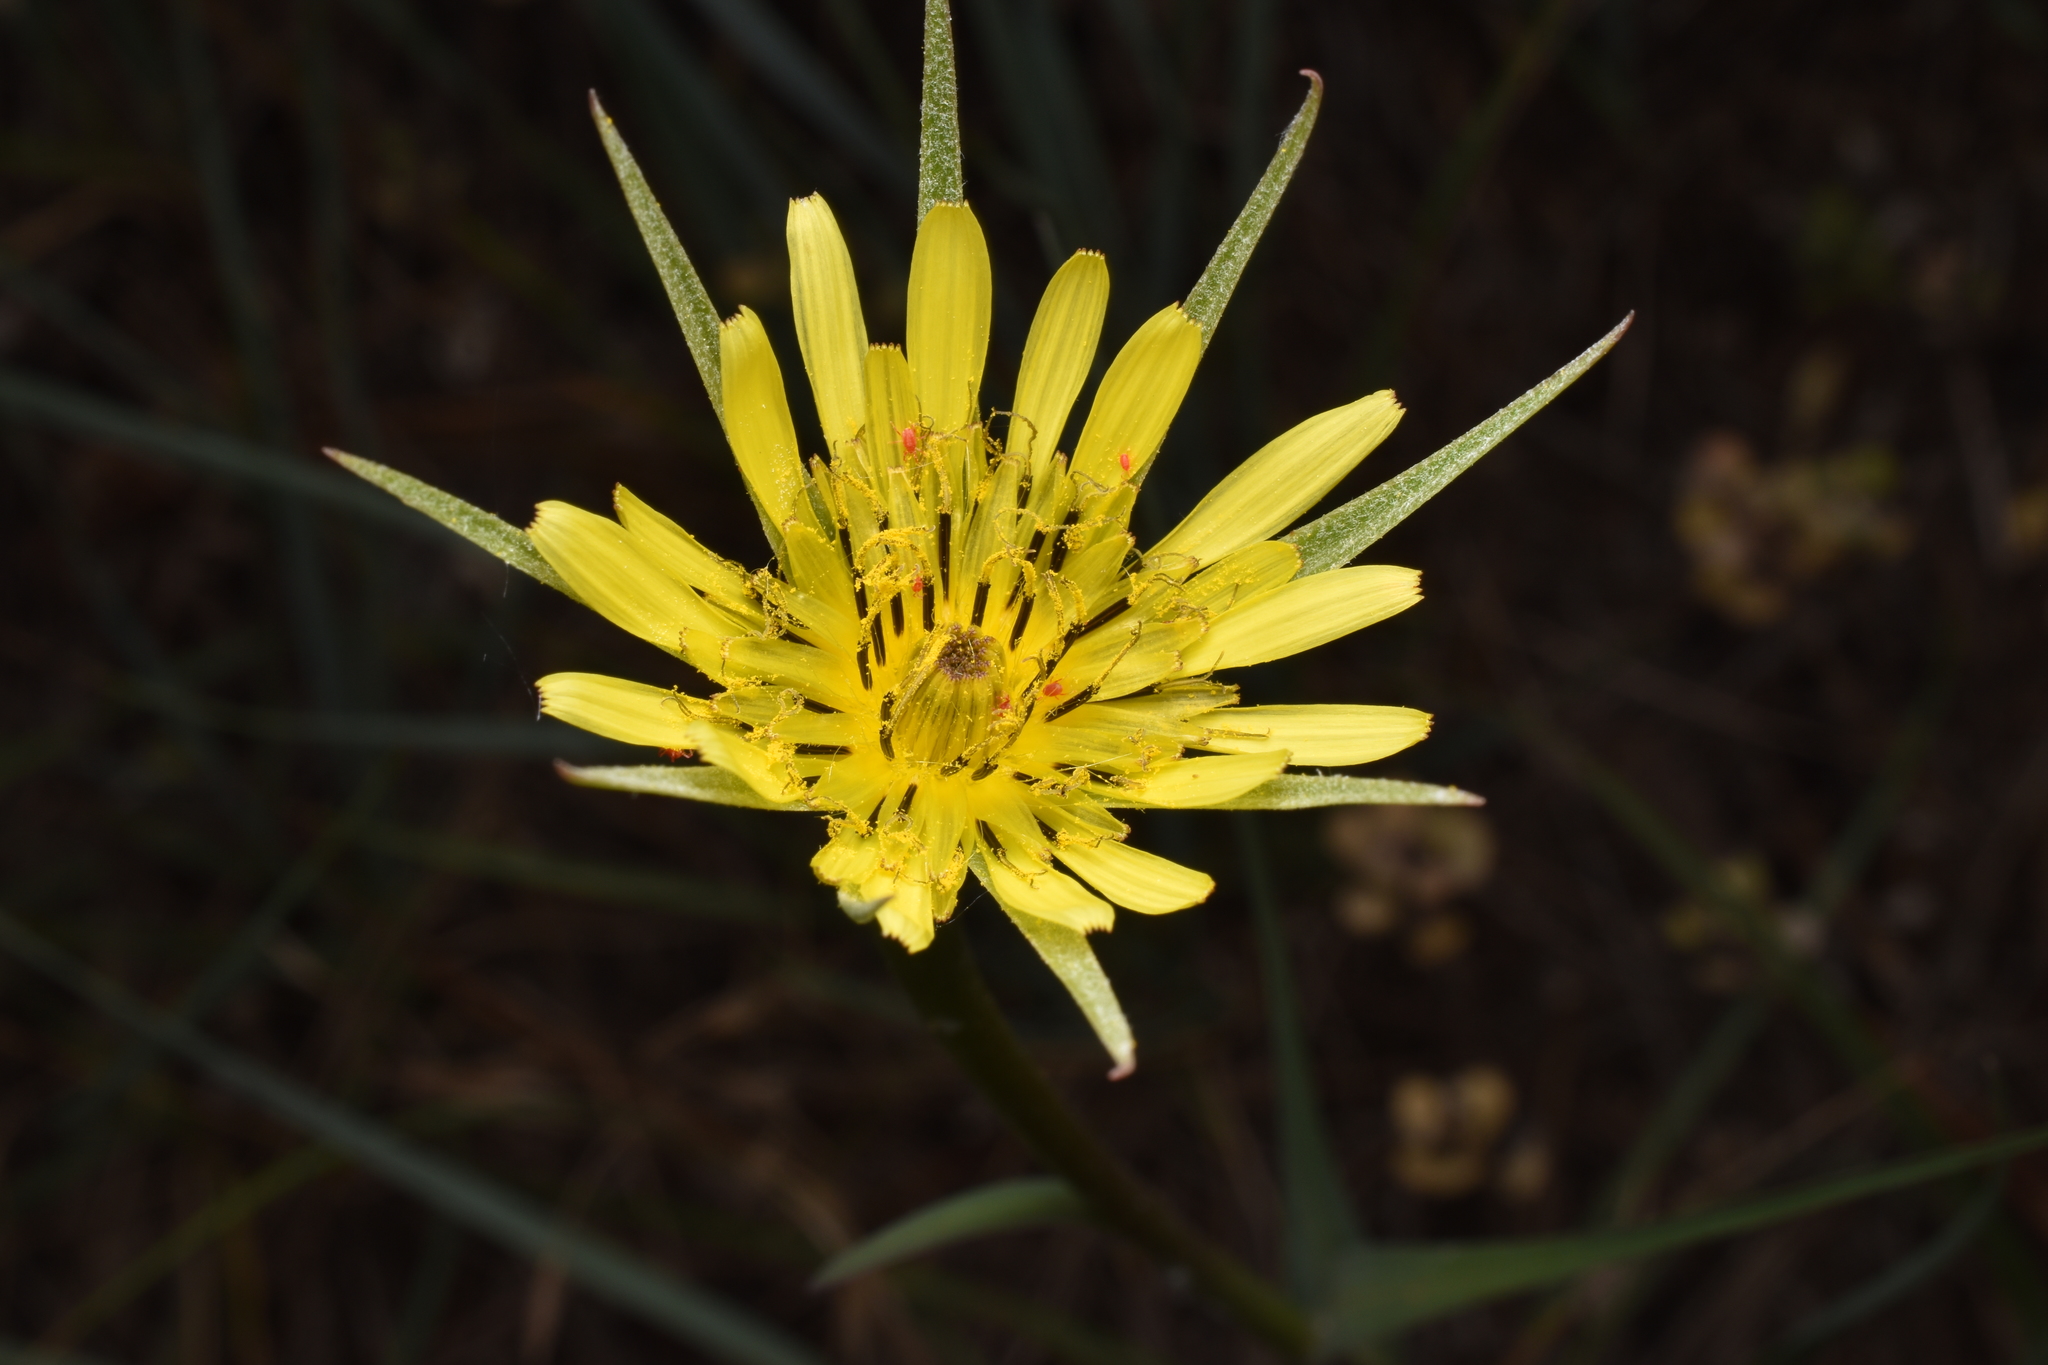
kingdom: Plantae
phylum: Tracheophyta
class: Magnoliopsida
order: Asterales
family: Asteraceae
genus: Tragopogon
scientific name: Tragopogon dubius
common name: Yellow salsify
